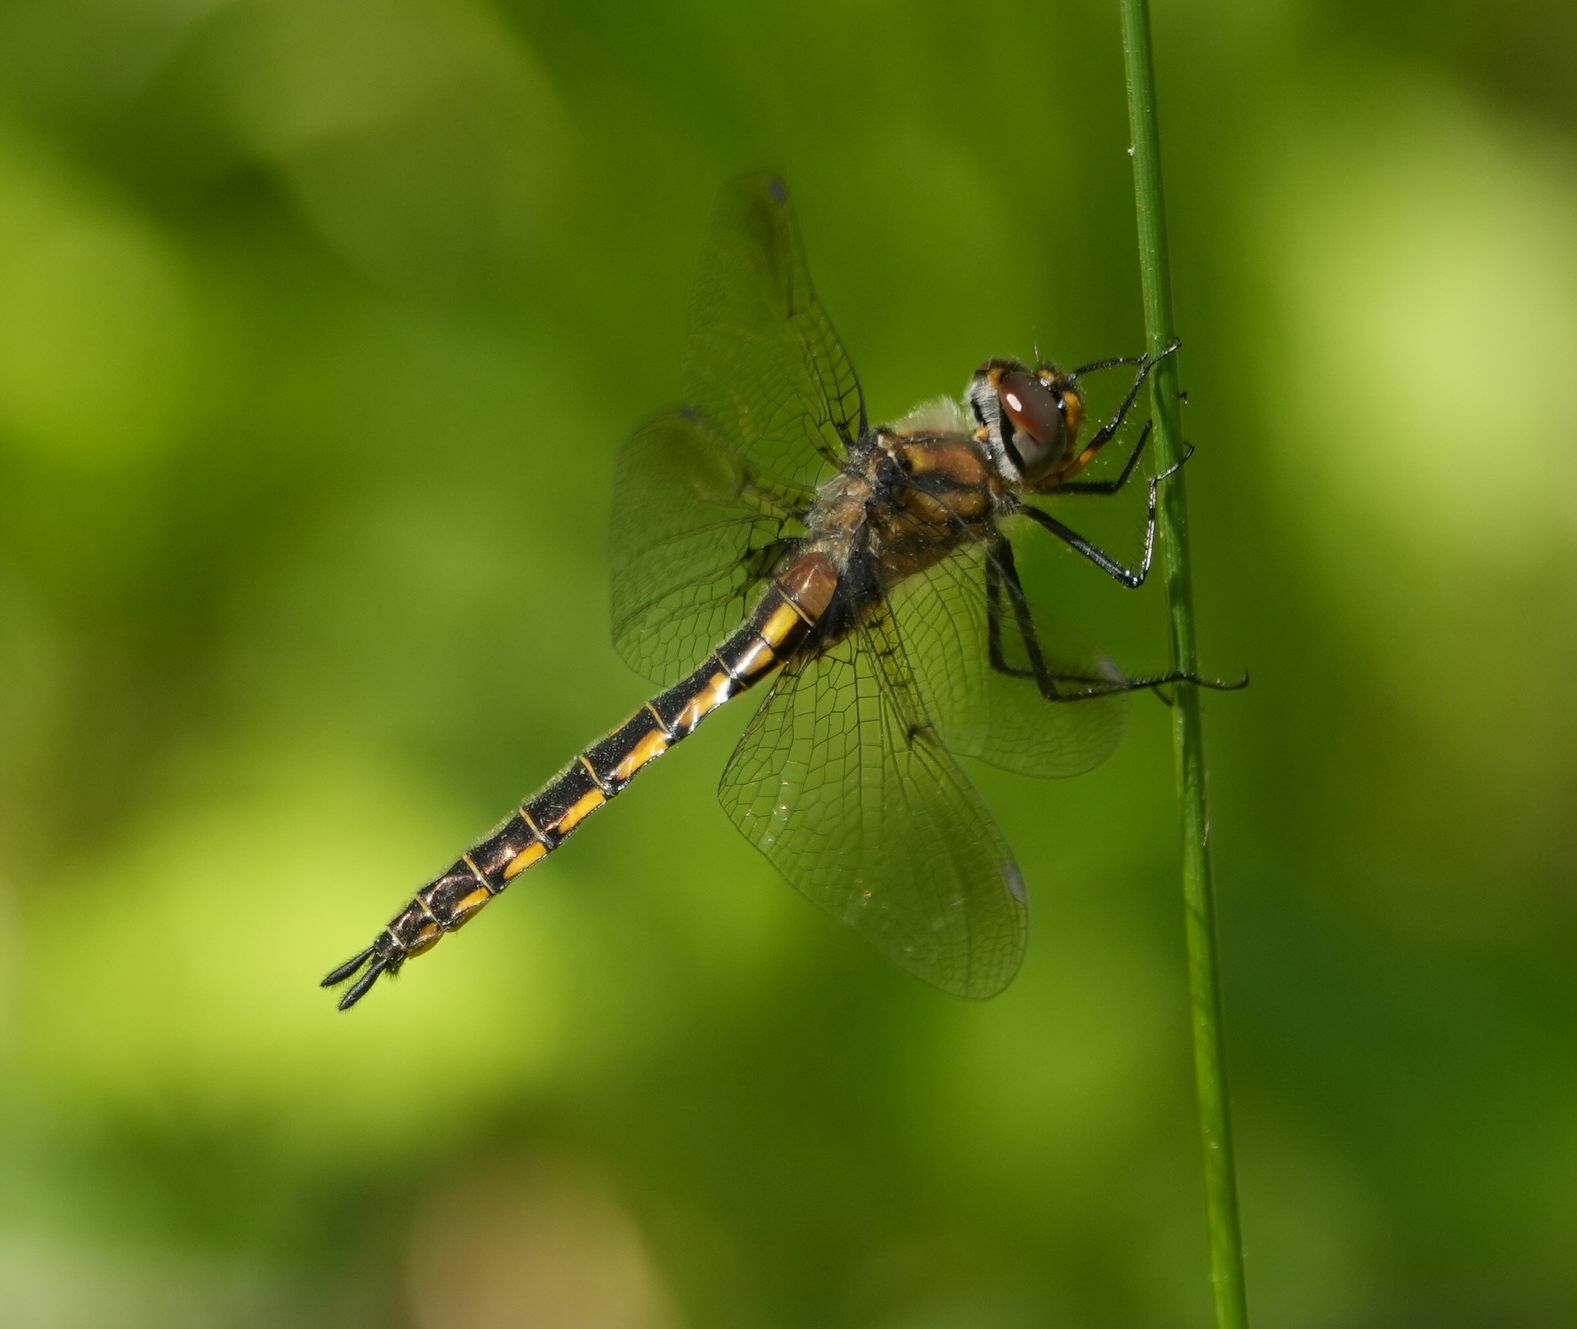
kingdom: Animalia
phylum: Arthropoda
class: Insecta
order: Odonata
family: Corduliidae
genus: Epitheca
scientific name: Epitheca spinigera
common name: Spiny baskettail
